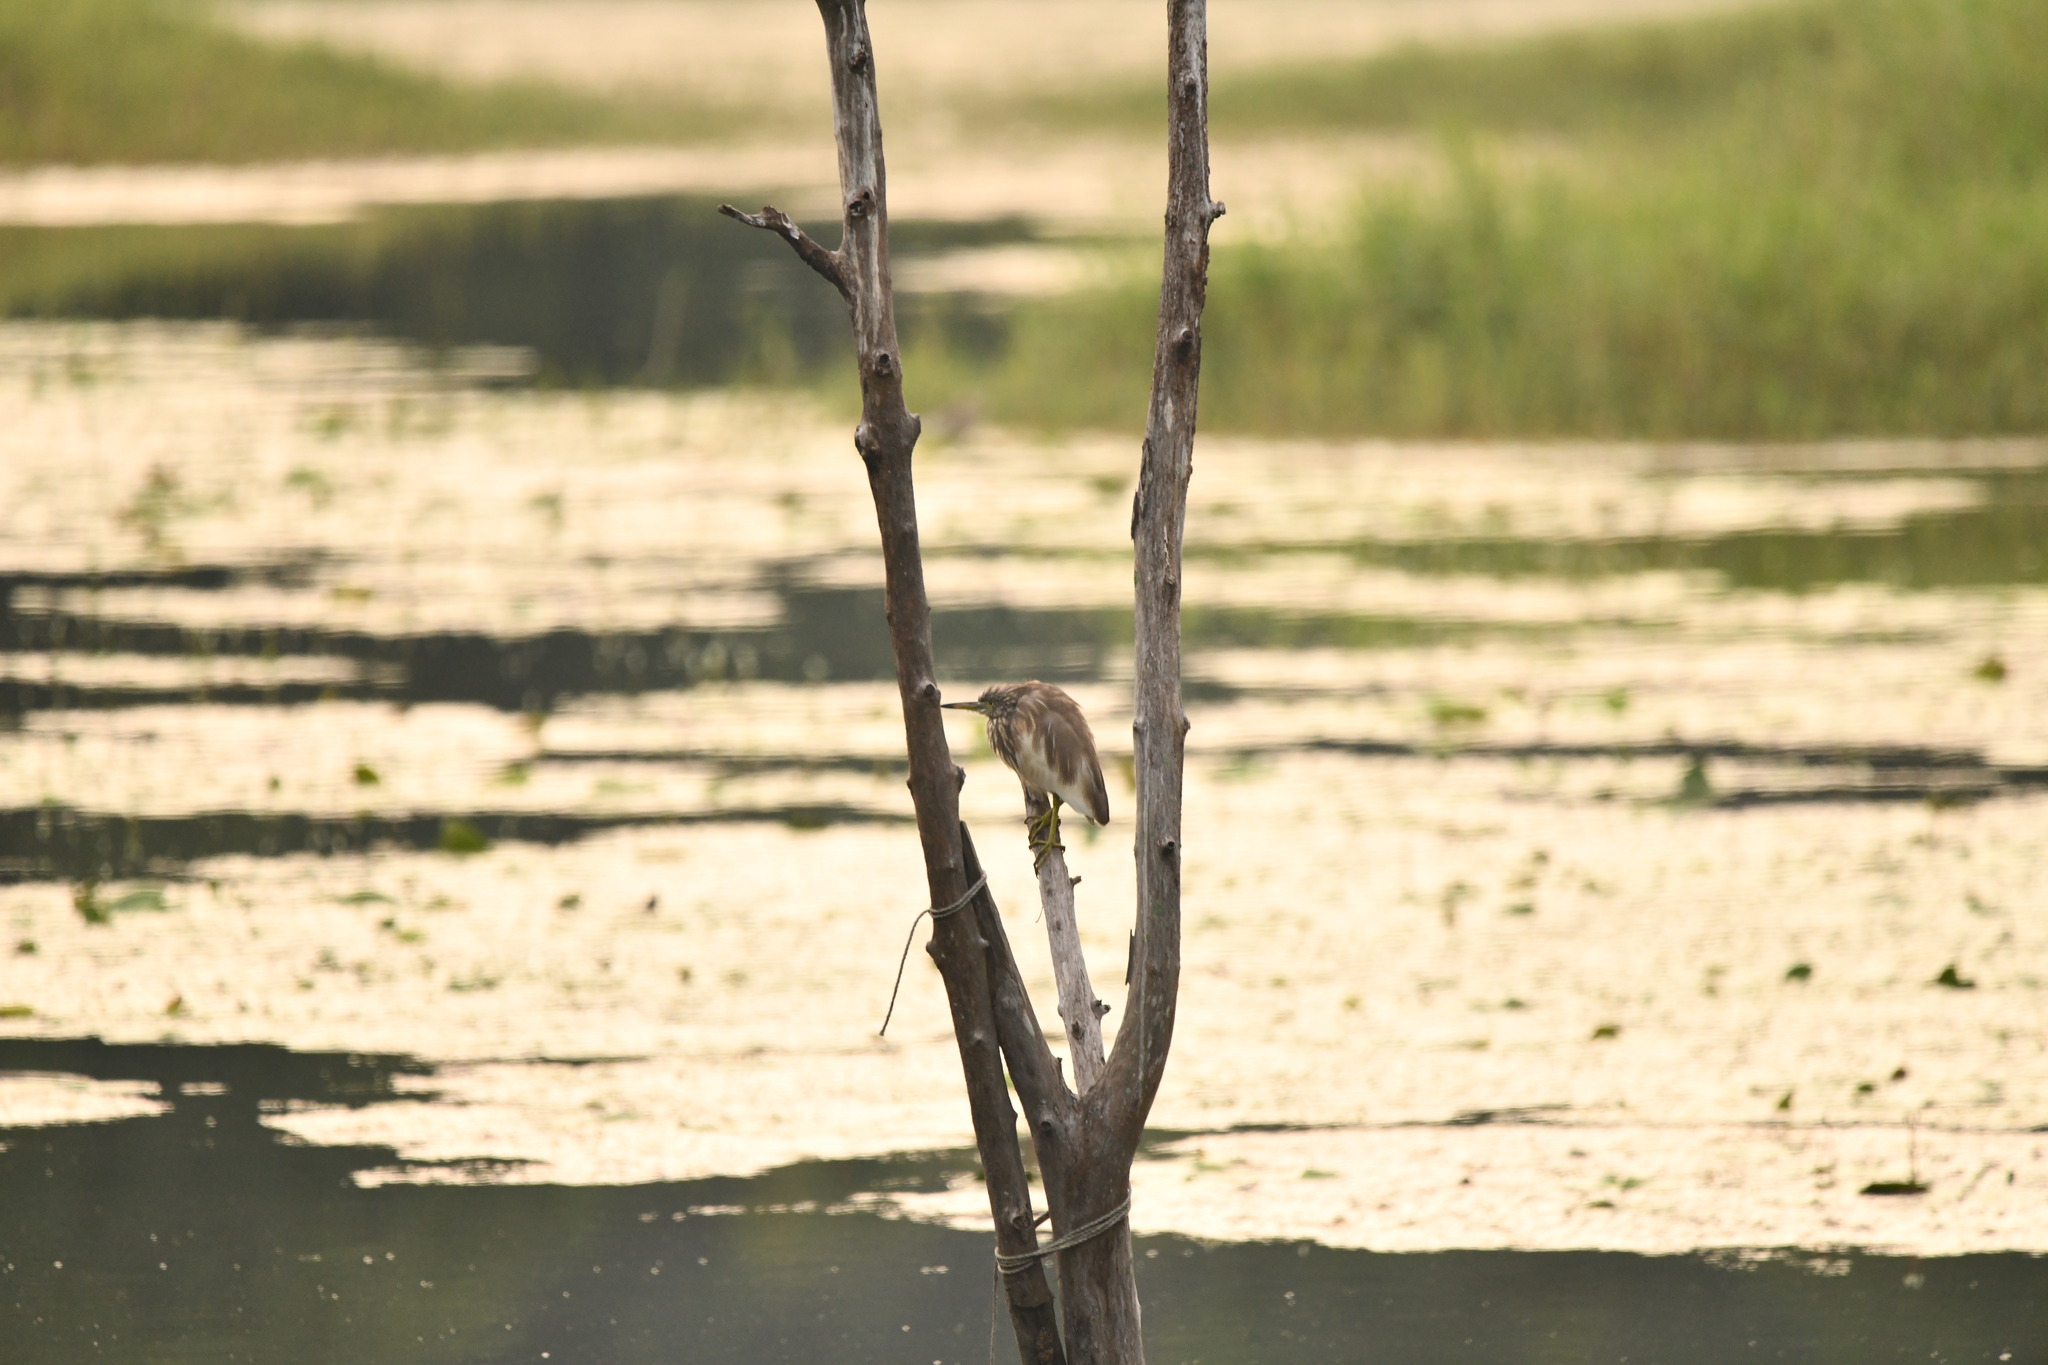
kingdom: Animalia
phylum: Chordata
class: Aves
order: Pelecaniformes
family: Ardeidae
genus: Ardeola
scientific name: Ardeola grayii
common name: Indian pond heron
